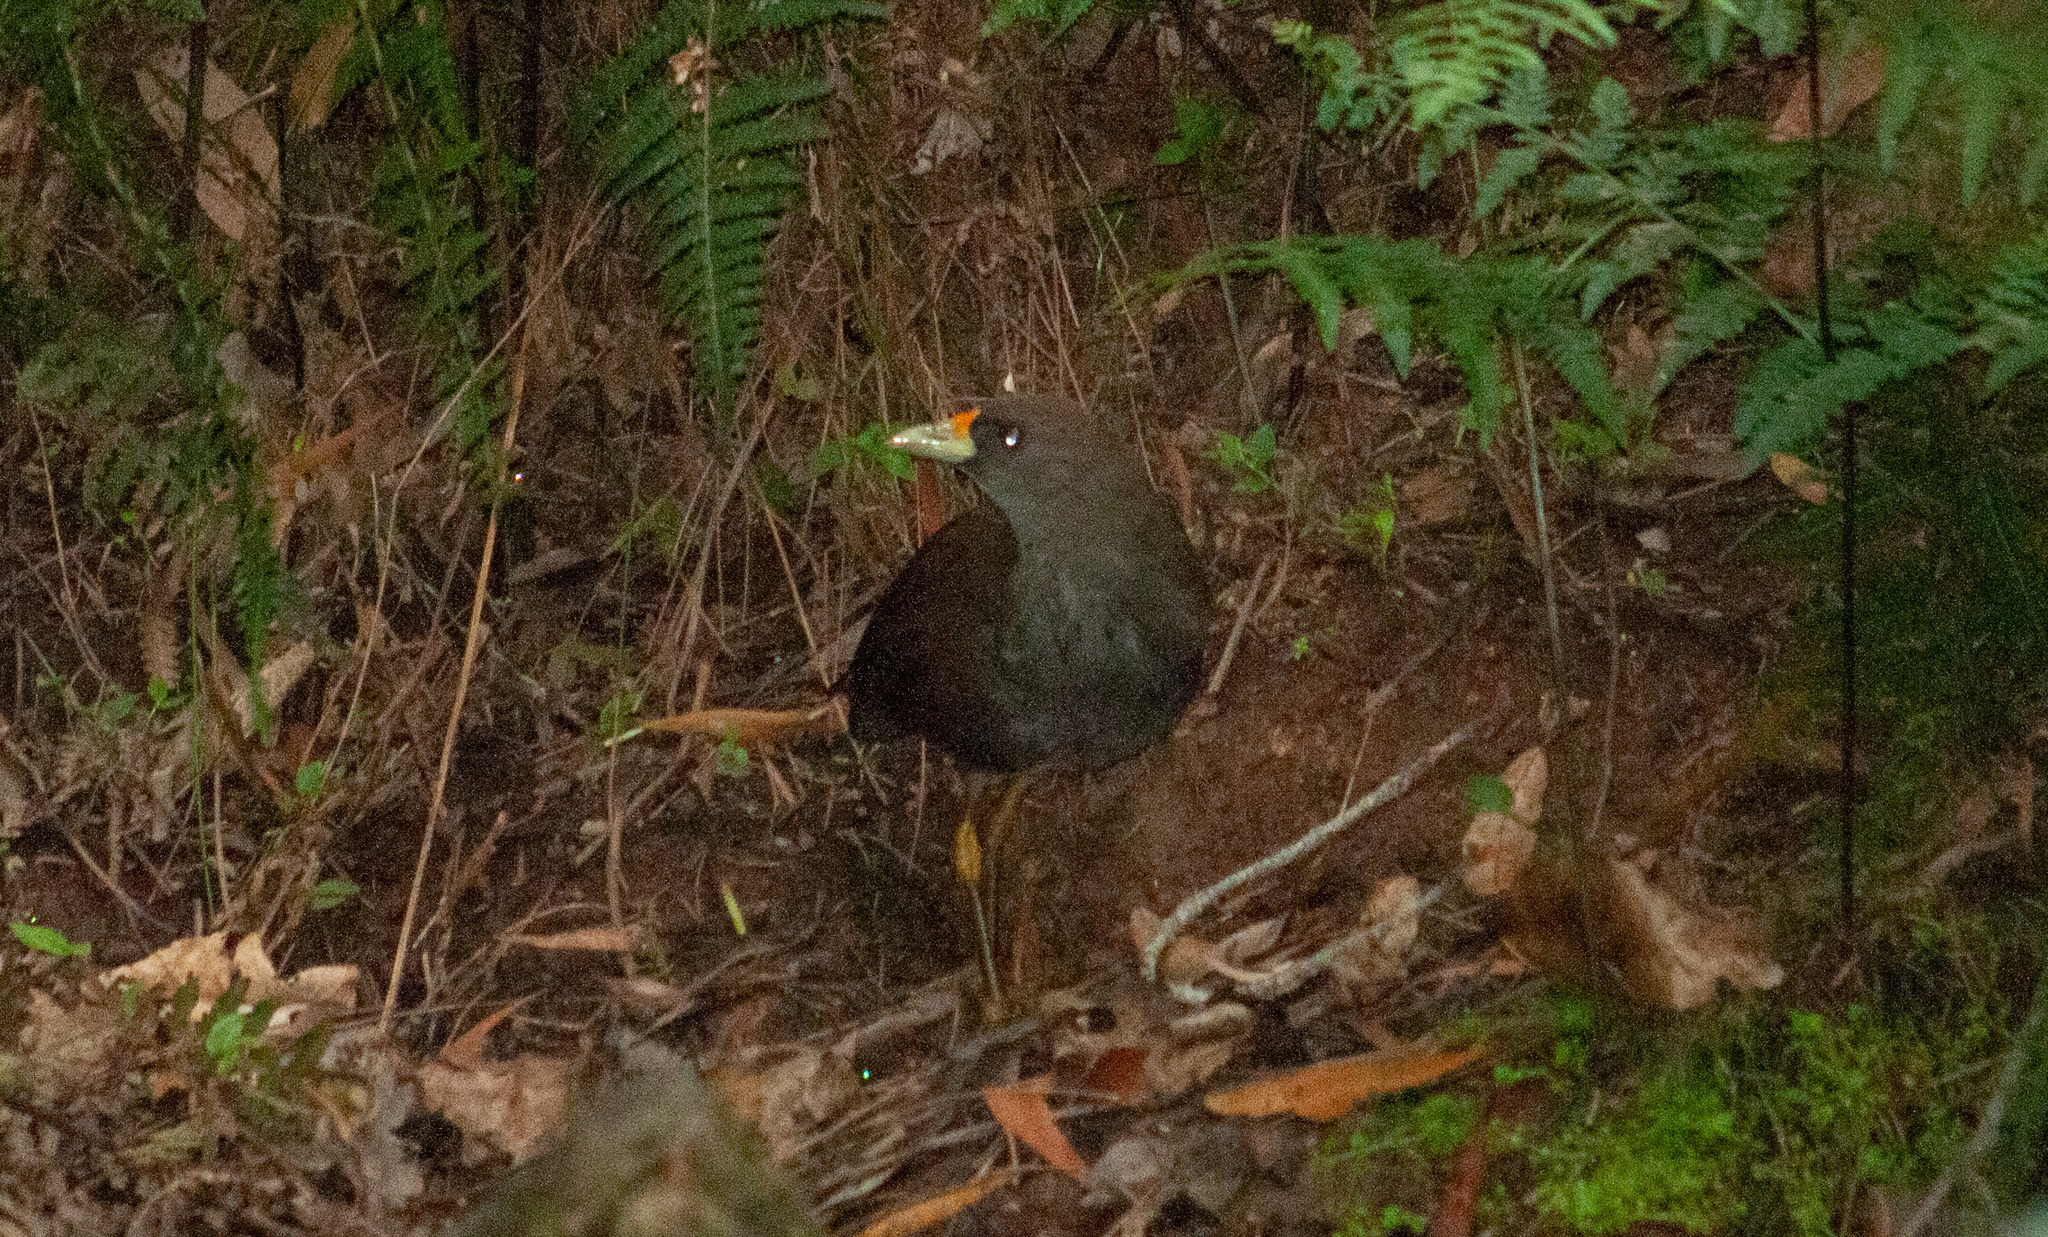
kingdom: Animalia
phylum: Chordata
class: Aves
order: Gruiformes
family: Rallidae
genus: Amaurornis
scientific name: Amaurornis olivacea
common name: Plain bush-hen
